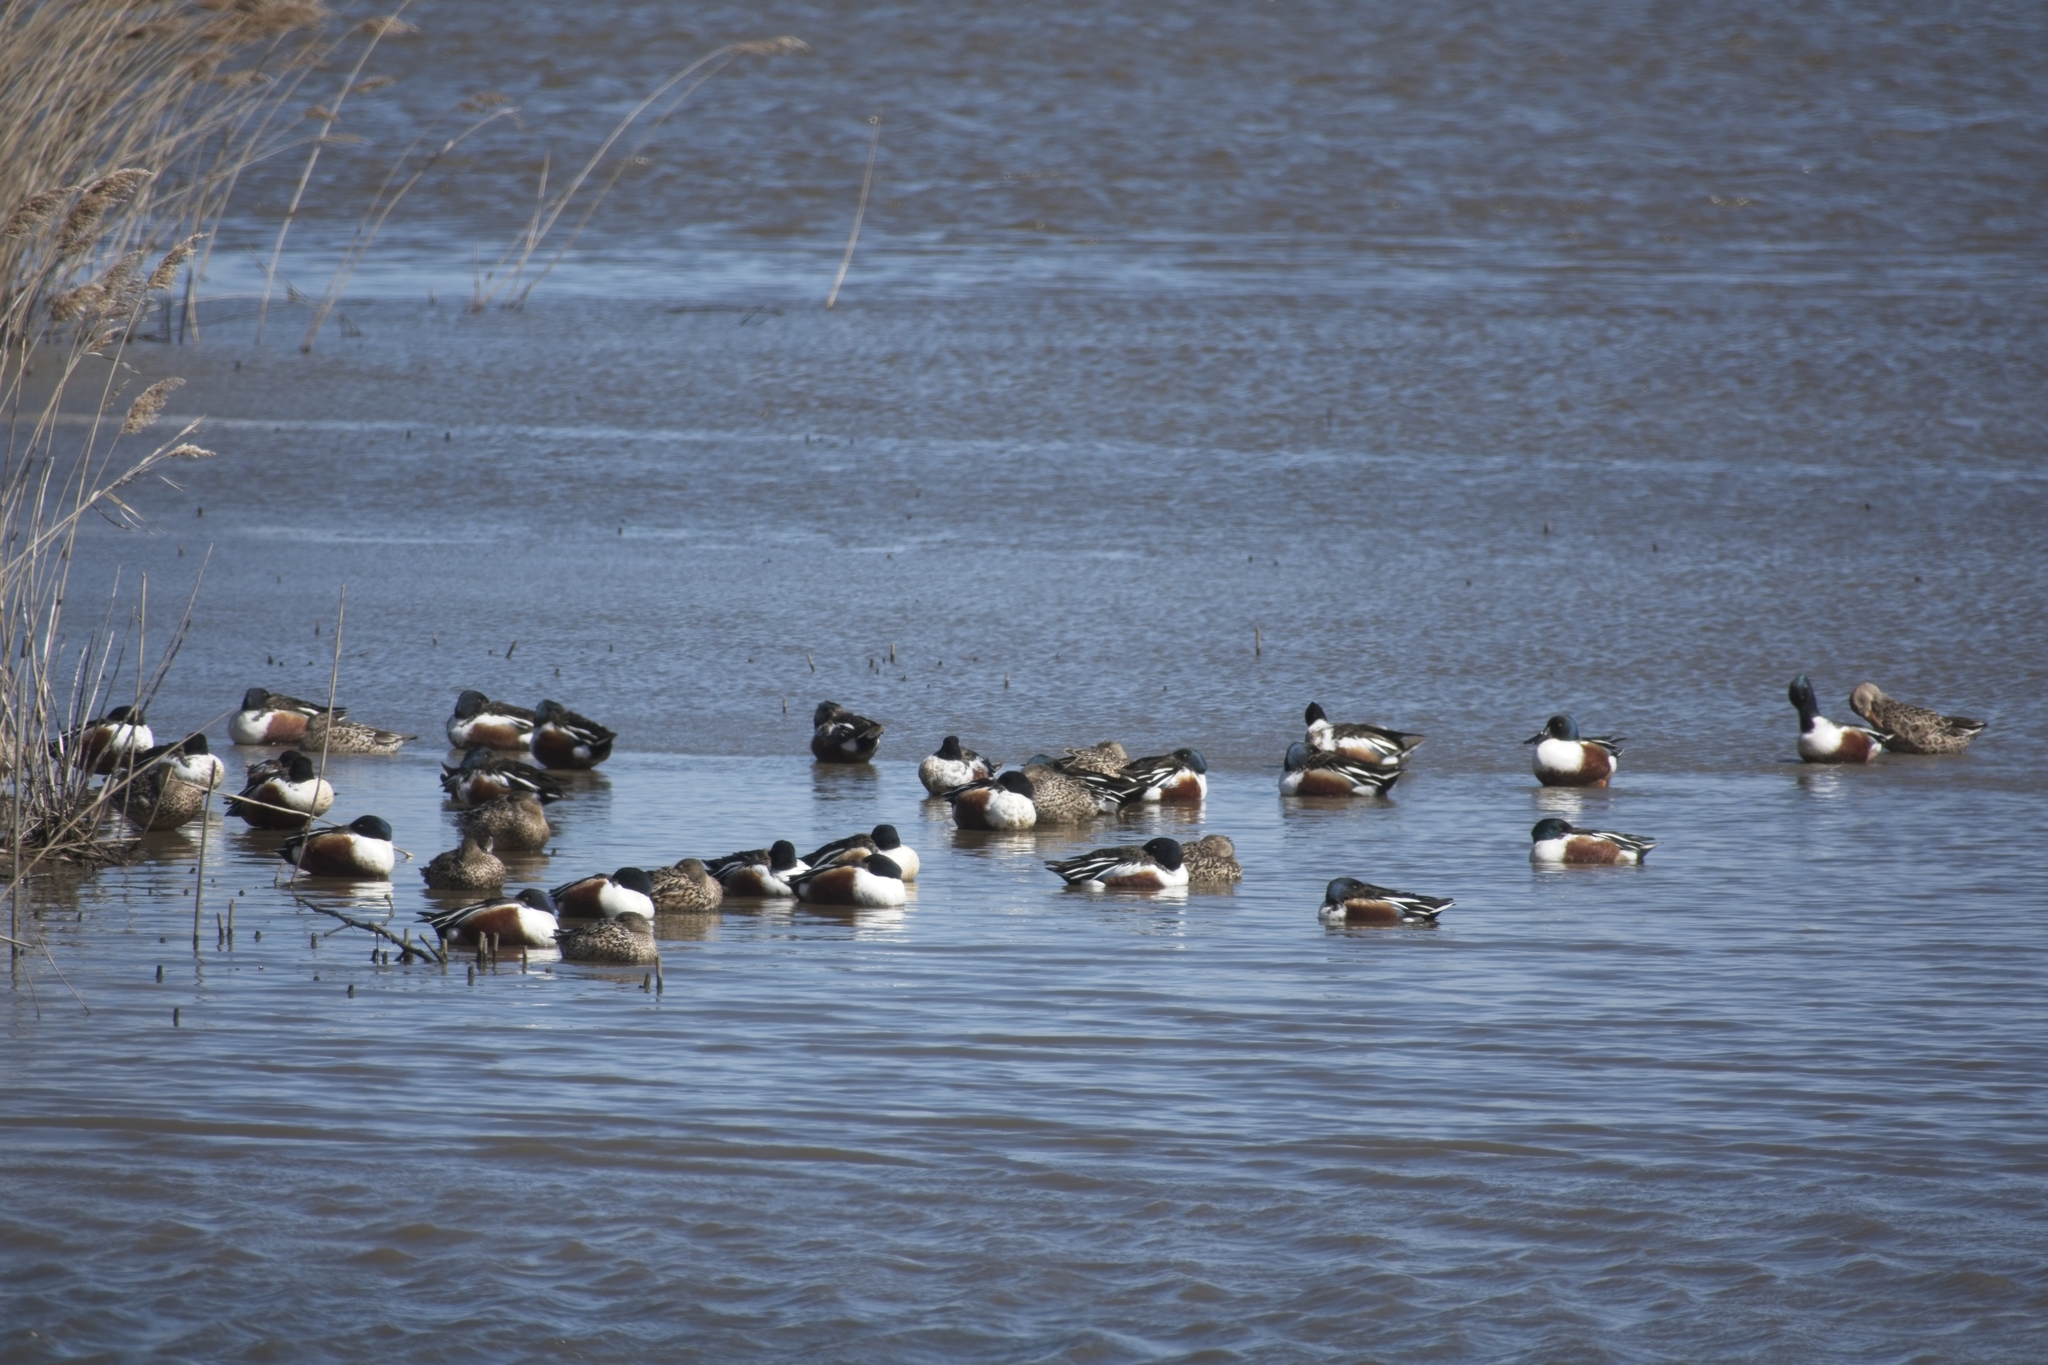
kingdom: Animalia
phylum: Chordata
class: Aves
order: Anseriformes
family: Anatidae
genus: Spatula
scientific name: Spatula clypeata
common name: Northern shoveler
